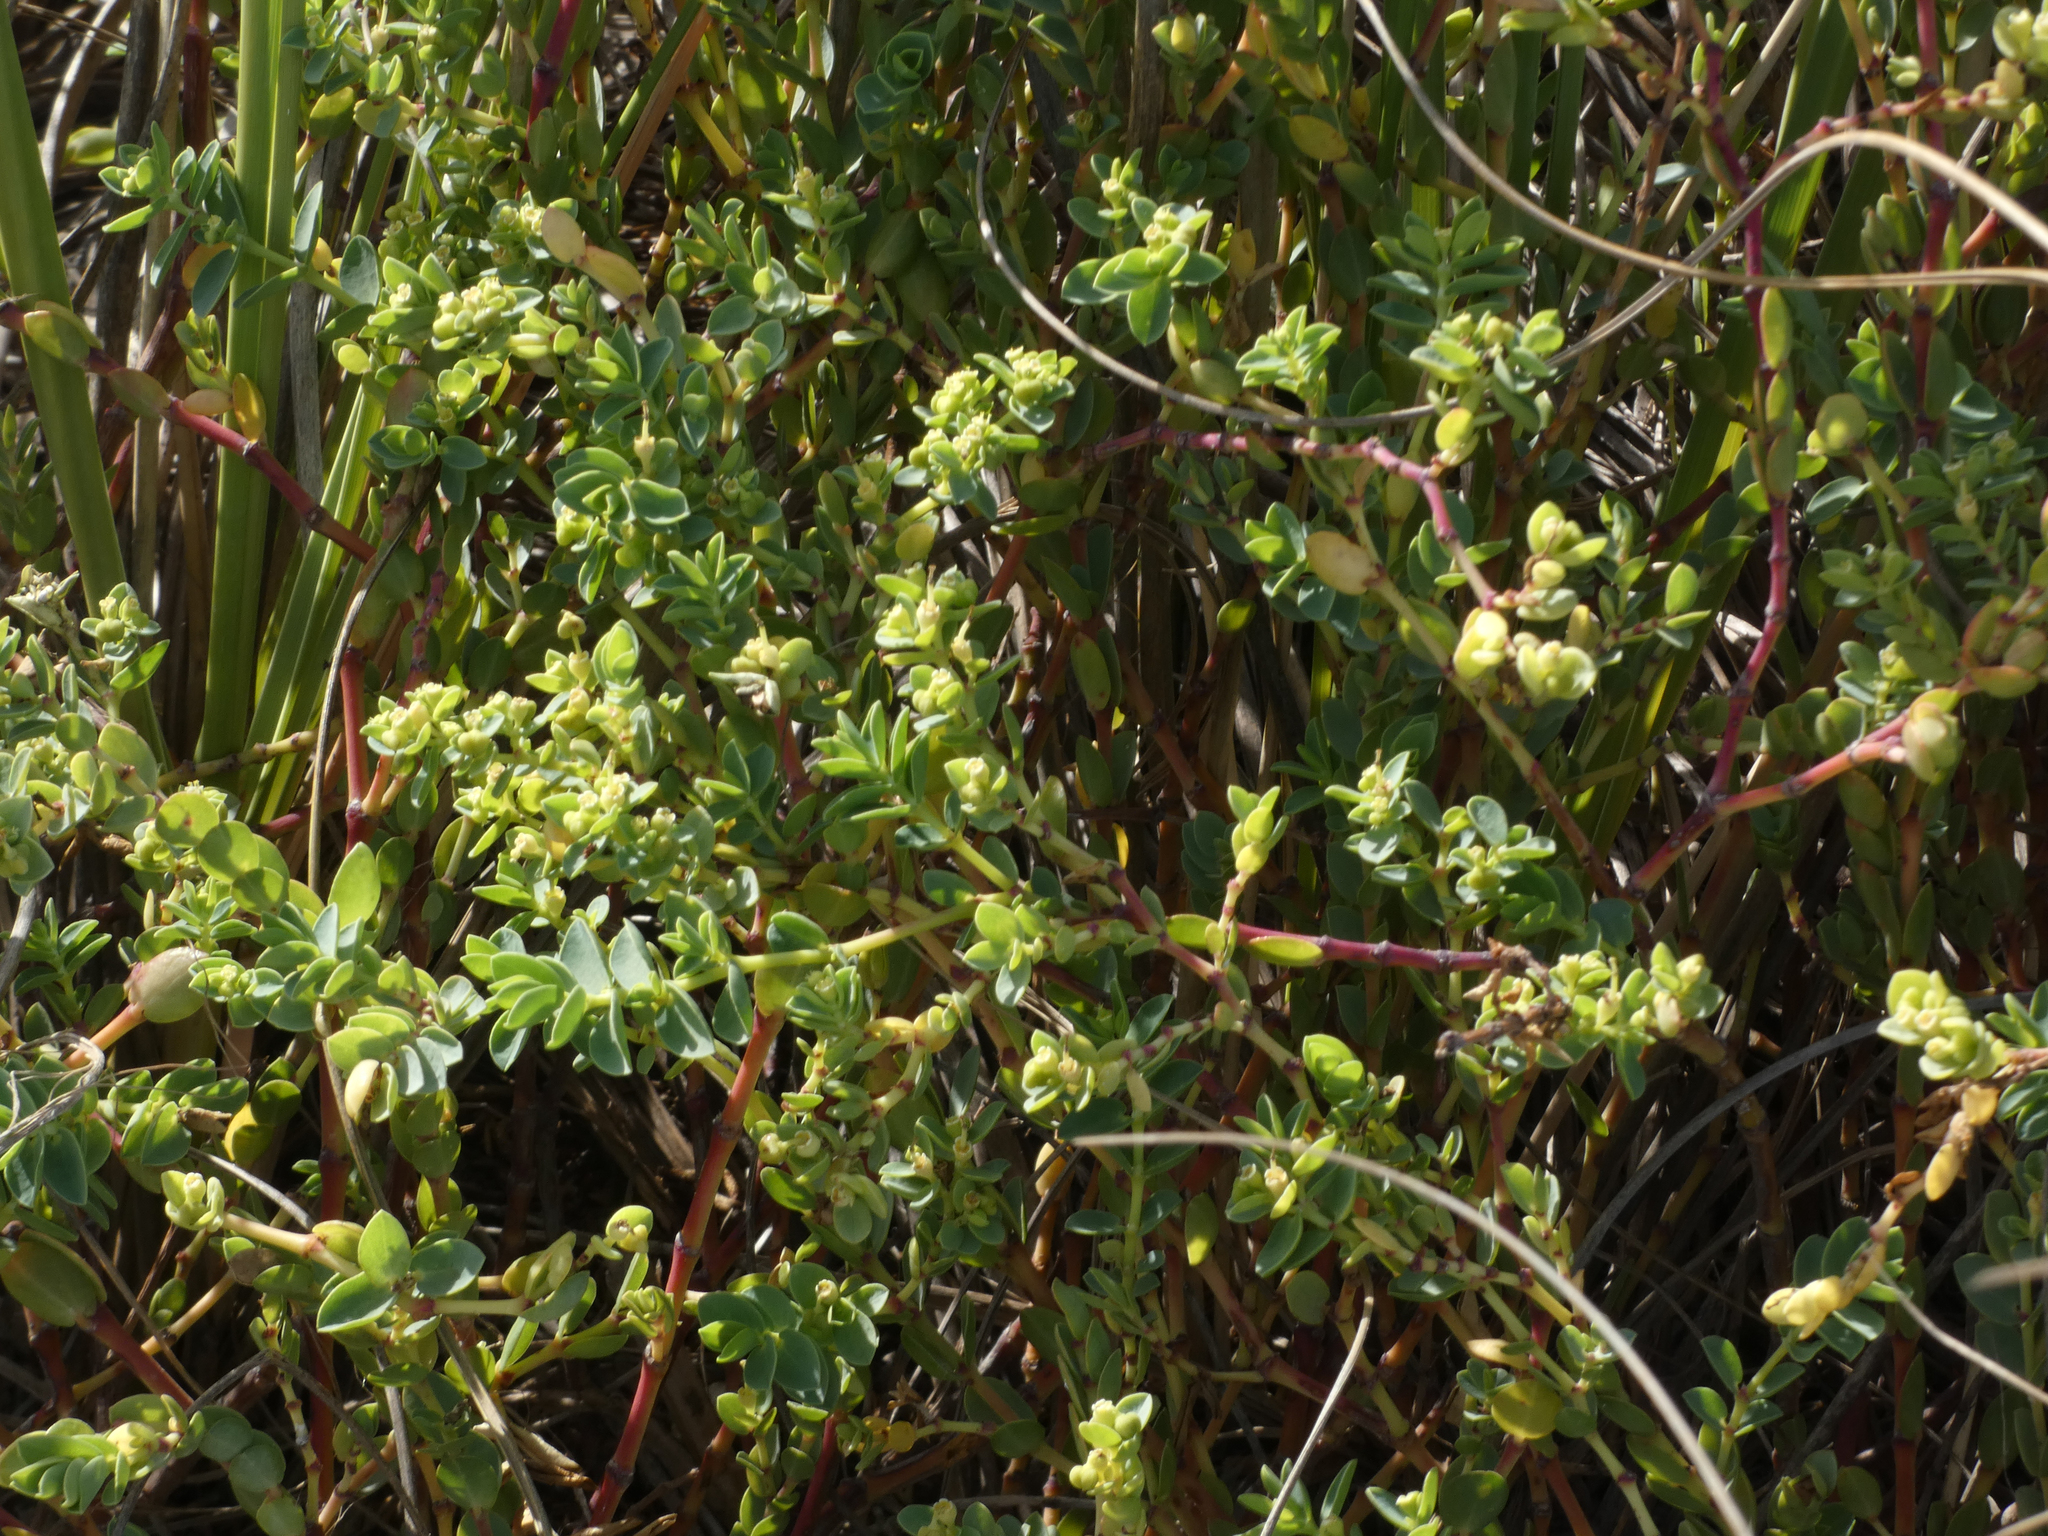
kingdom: Plantae
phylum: Tracheophyta
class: Magnoliopsida
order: Malpighiales
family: Euphorbiaceae
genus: Euphorbia
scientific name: Euphorbia mesembryanthemifolia
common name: Coastal beach sandmat
